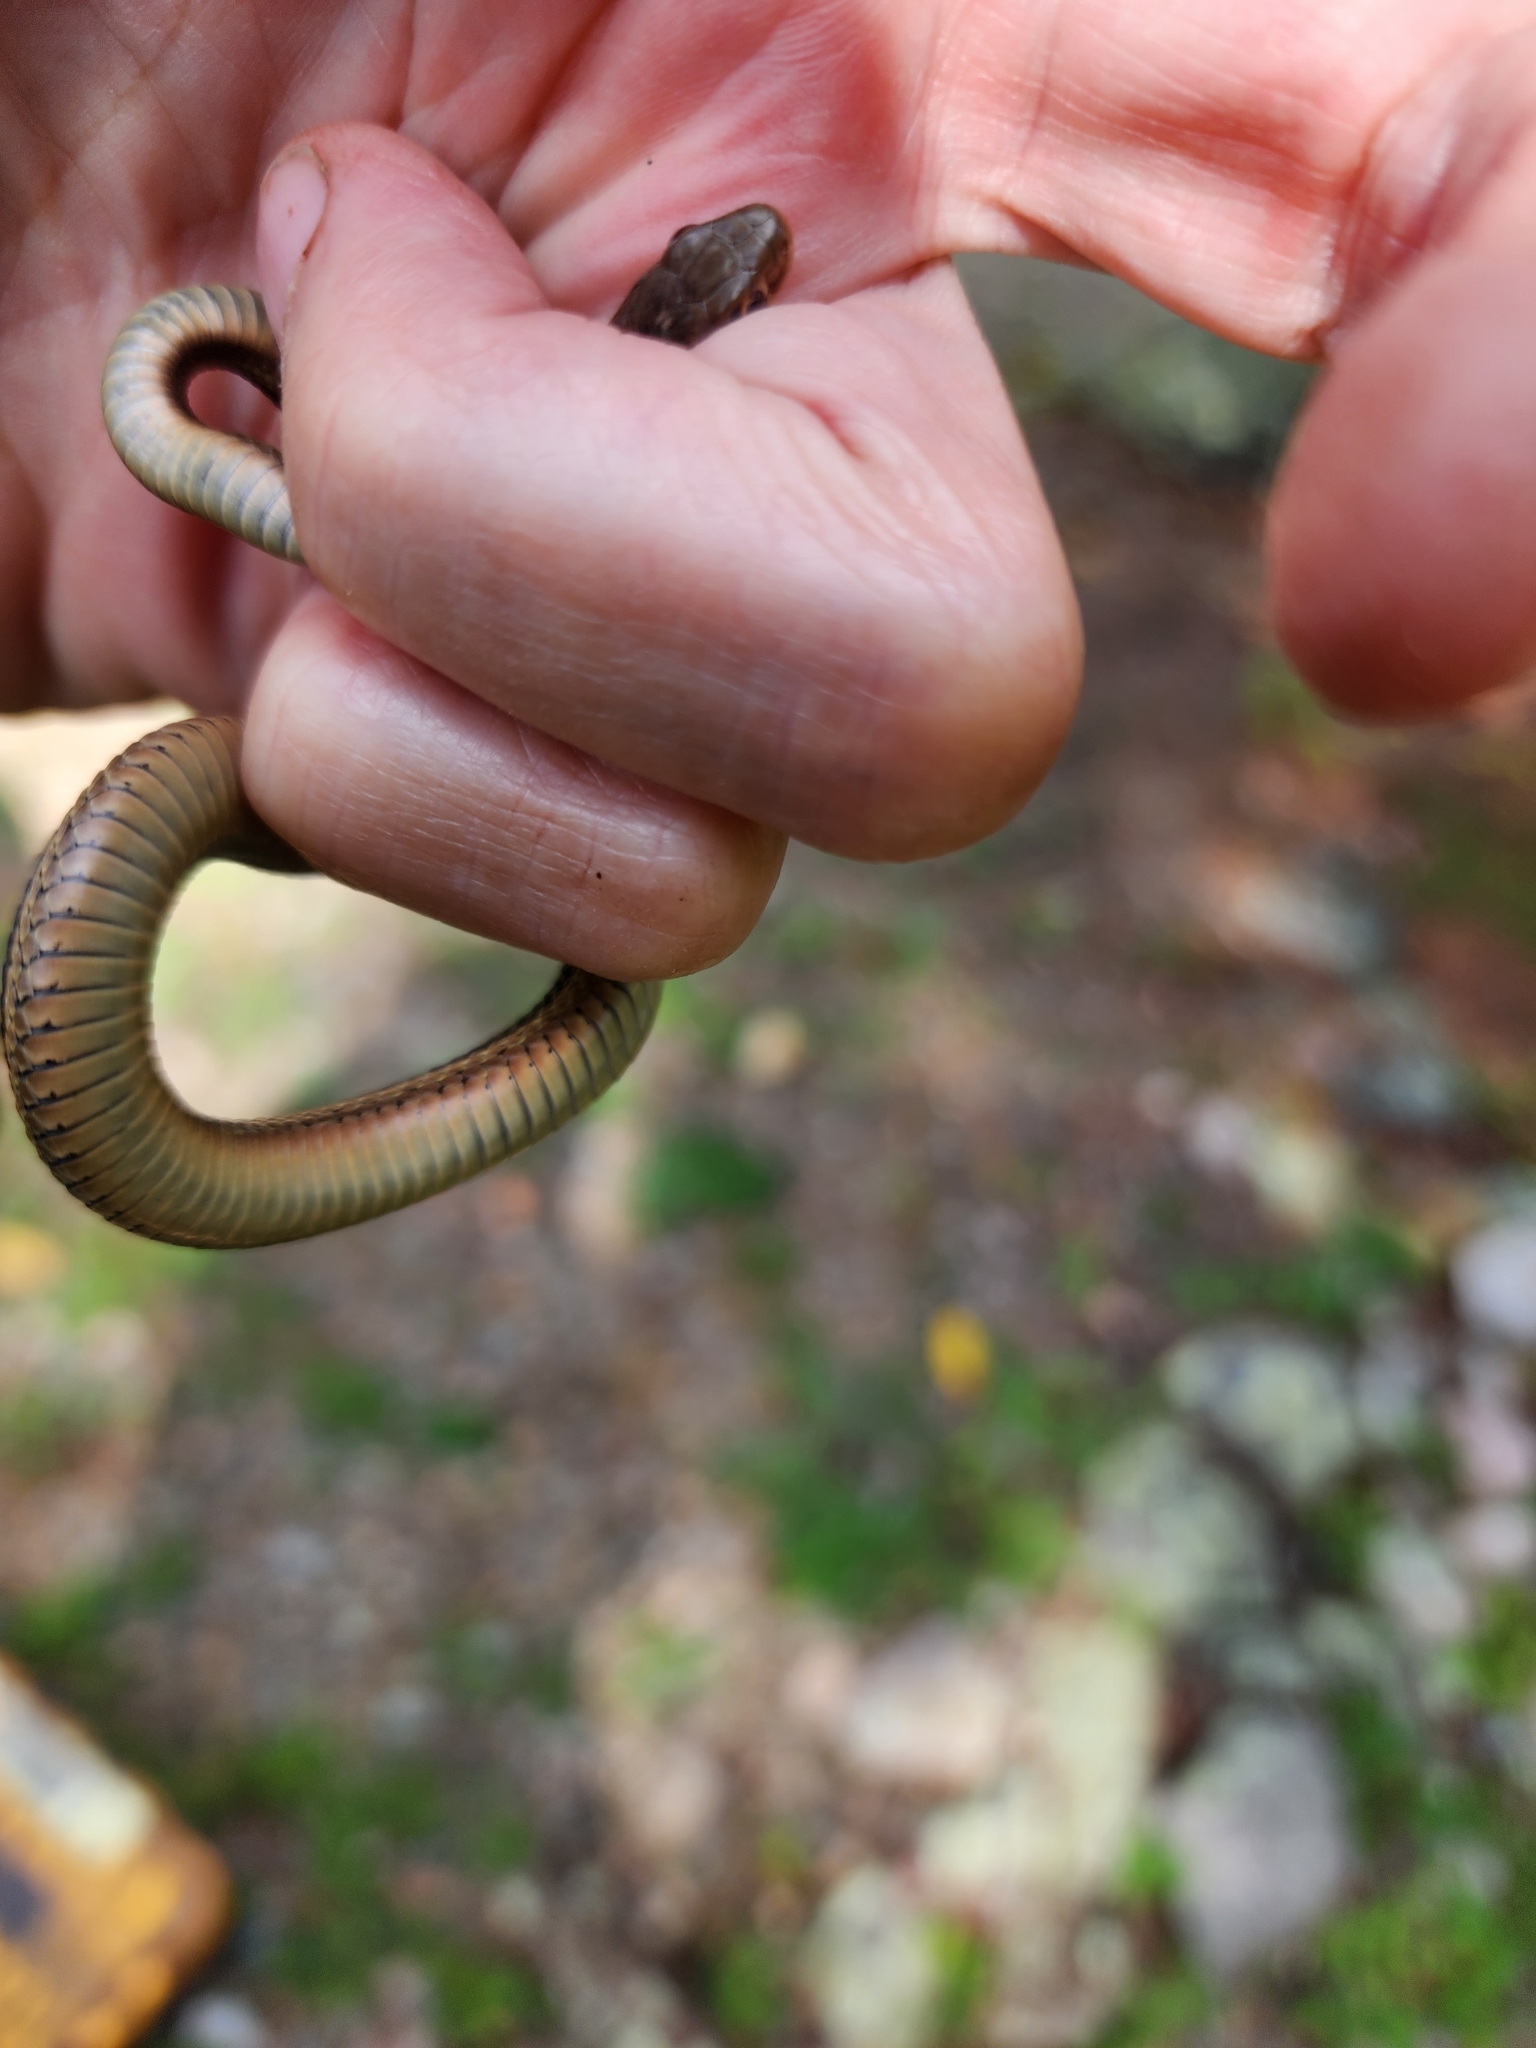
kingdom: Animalia
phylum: Chordata
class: Squamata
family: Colubridae
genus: Thamnophis
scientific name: Thamnophis sirtalis
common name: Common garter snake
